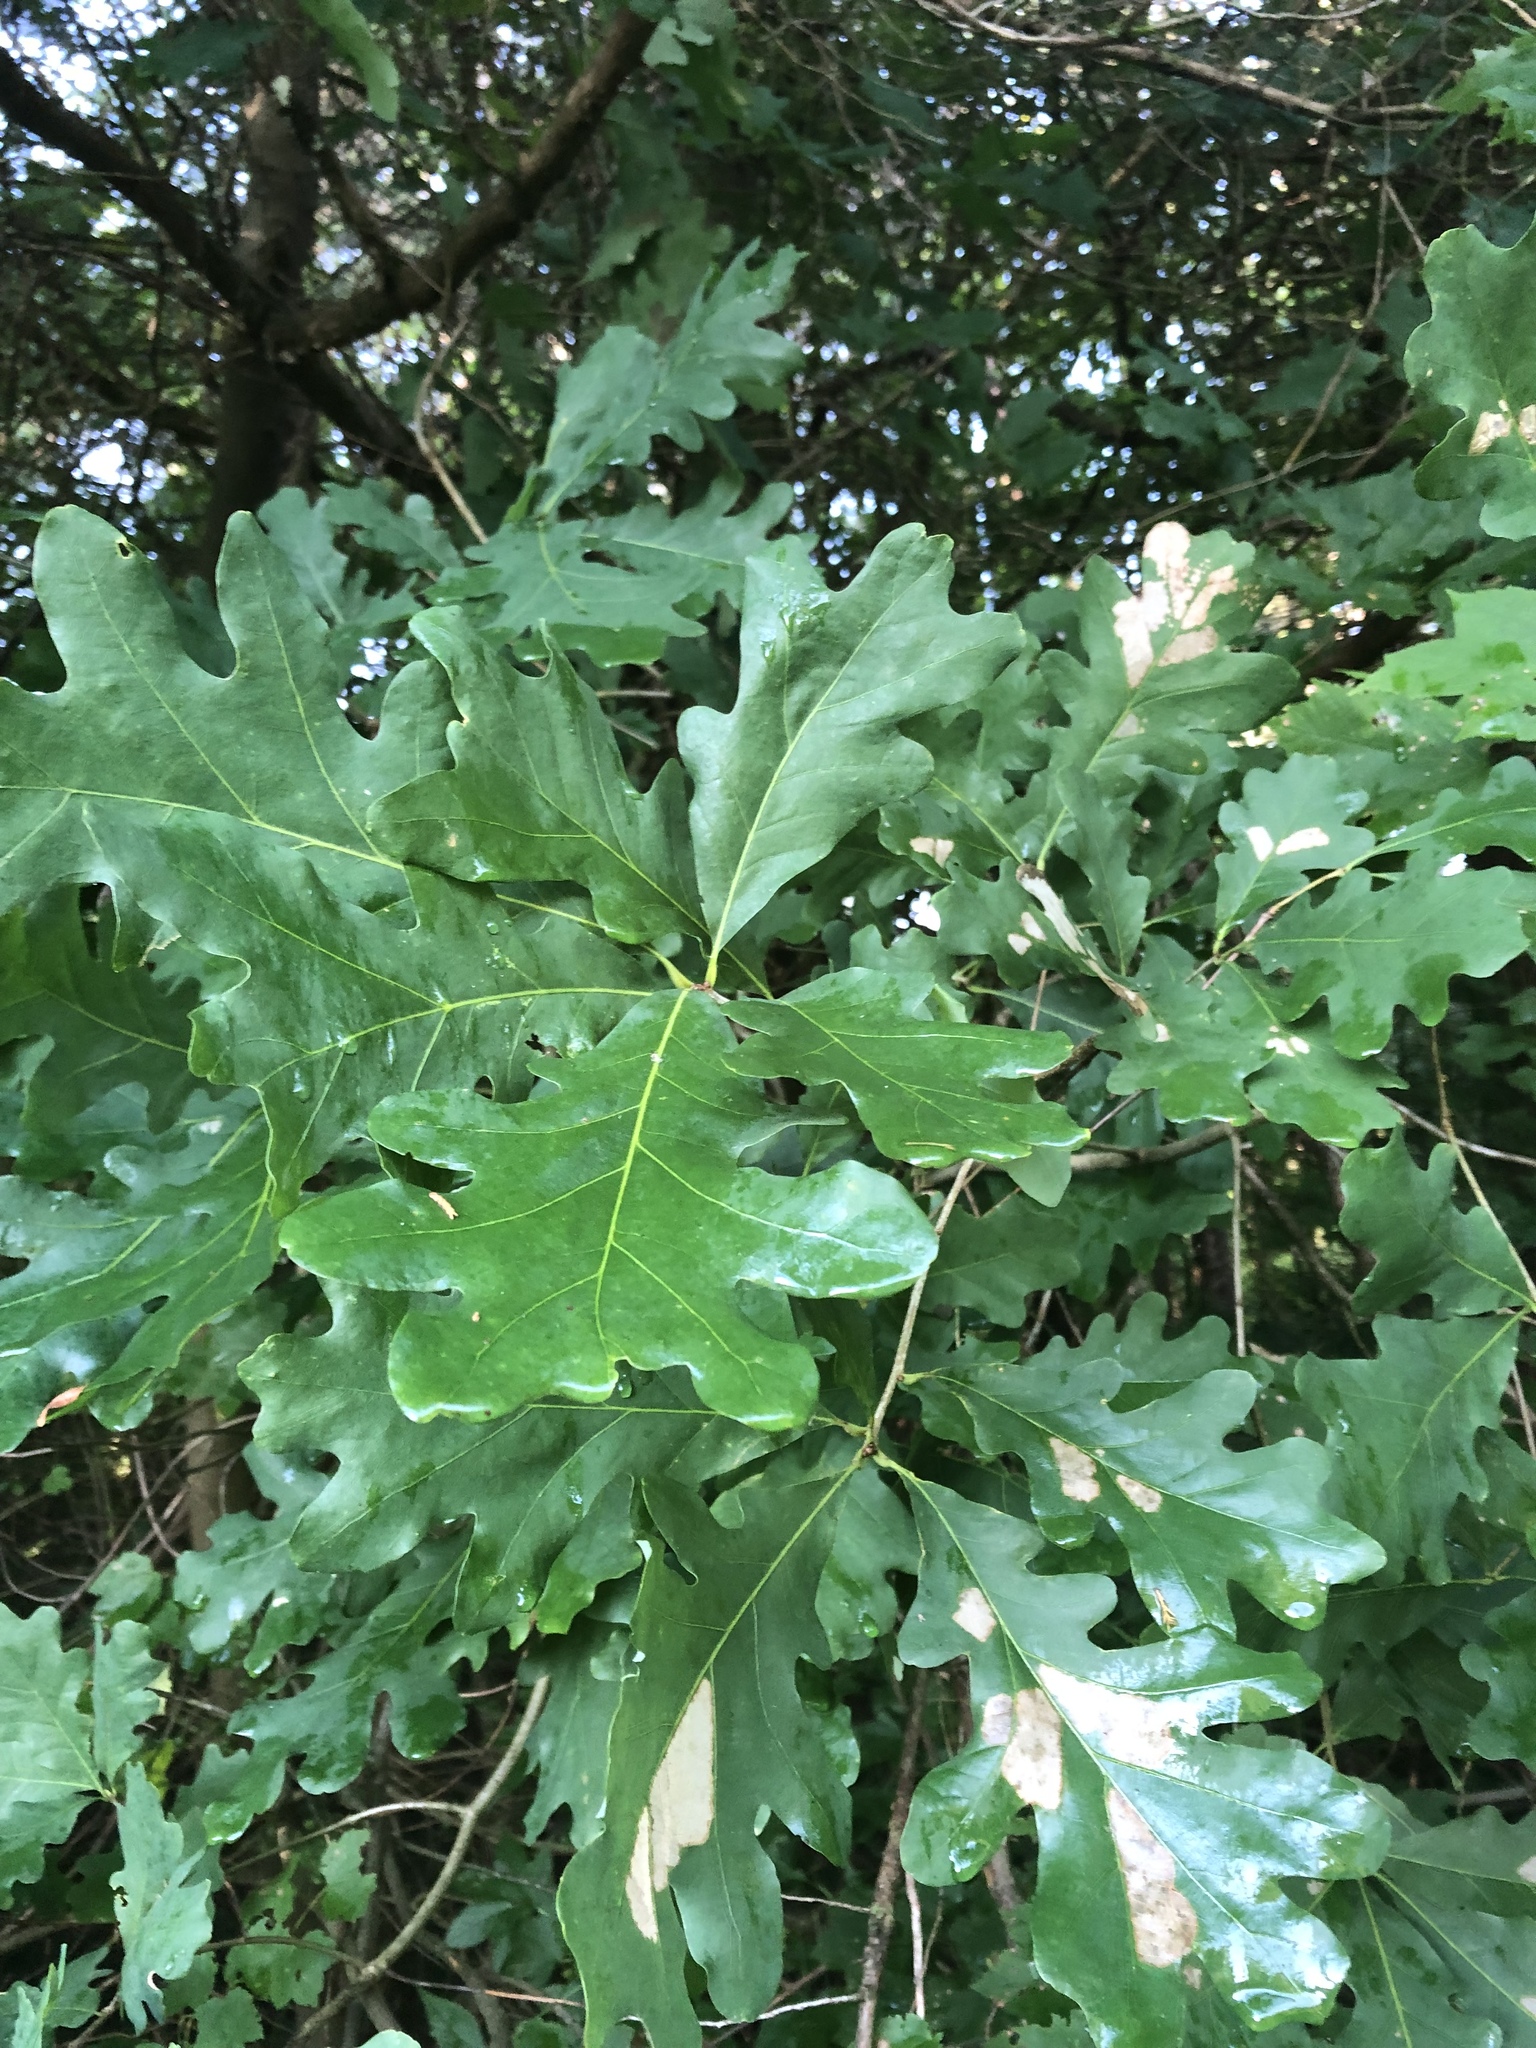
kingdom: Plantae
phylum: Tracheophyta
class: Magnoliopsida
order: Fagales
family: Fagaceae
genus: Quercus
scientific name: Quercus alba
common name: White oak
